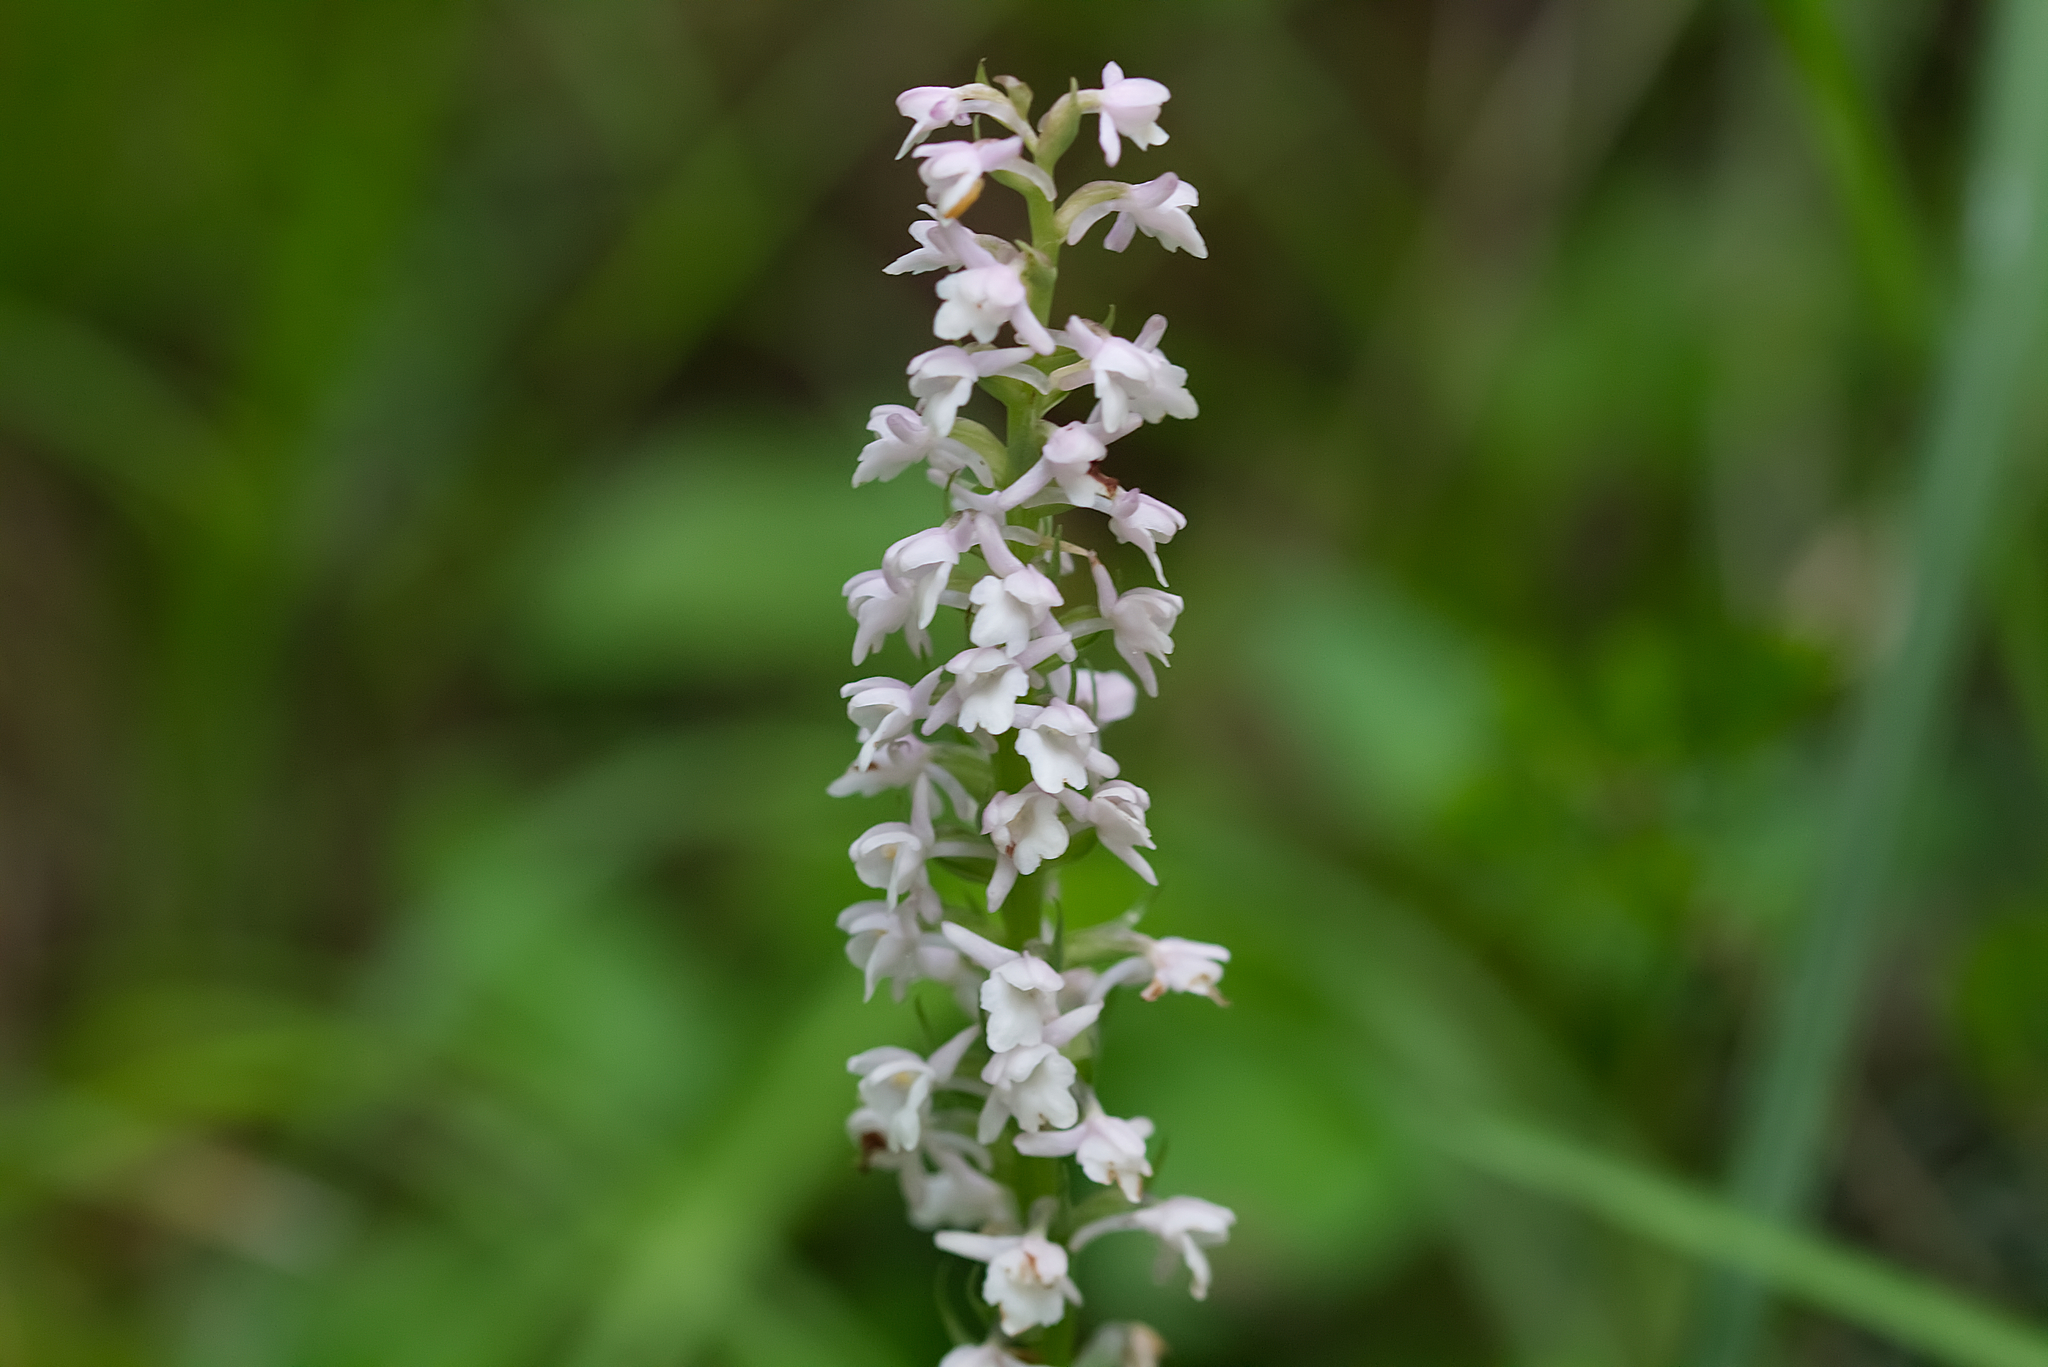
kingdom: Plantae
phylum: Tracheophyta
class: Liliopsida
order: Asparagales
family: Orchidaceae
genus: Gymnadenia
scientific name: Gymnadenia odoratissima
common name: Scented gymnadenia
